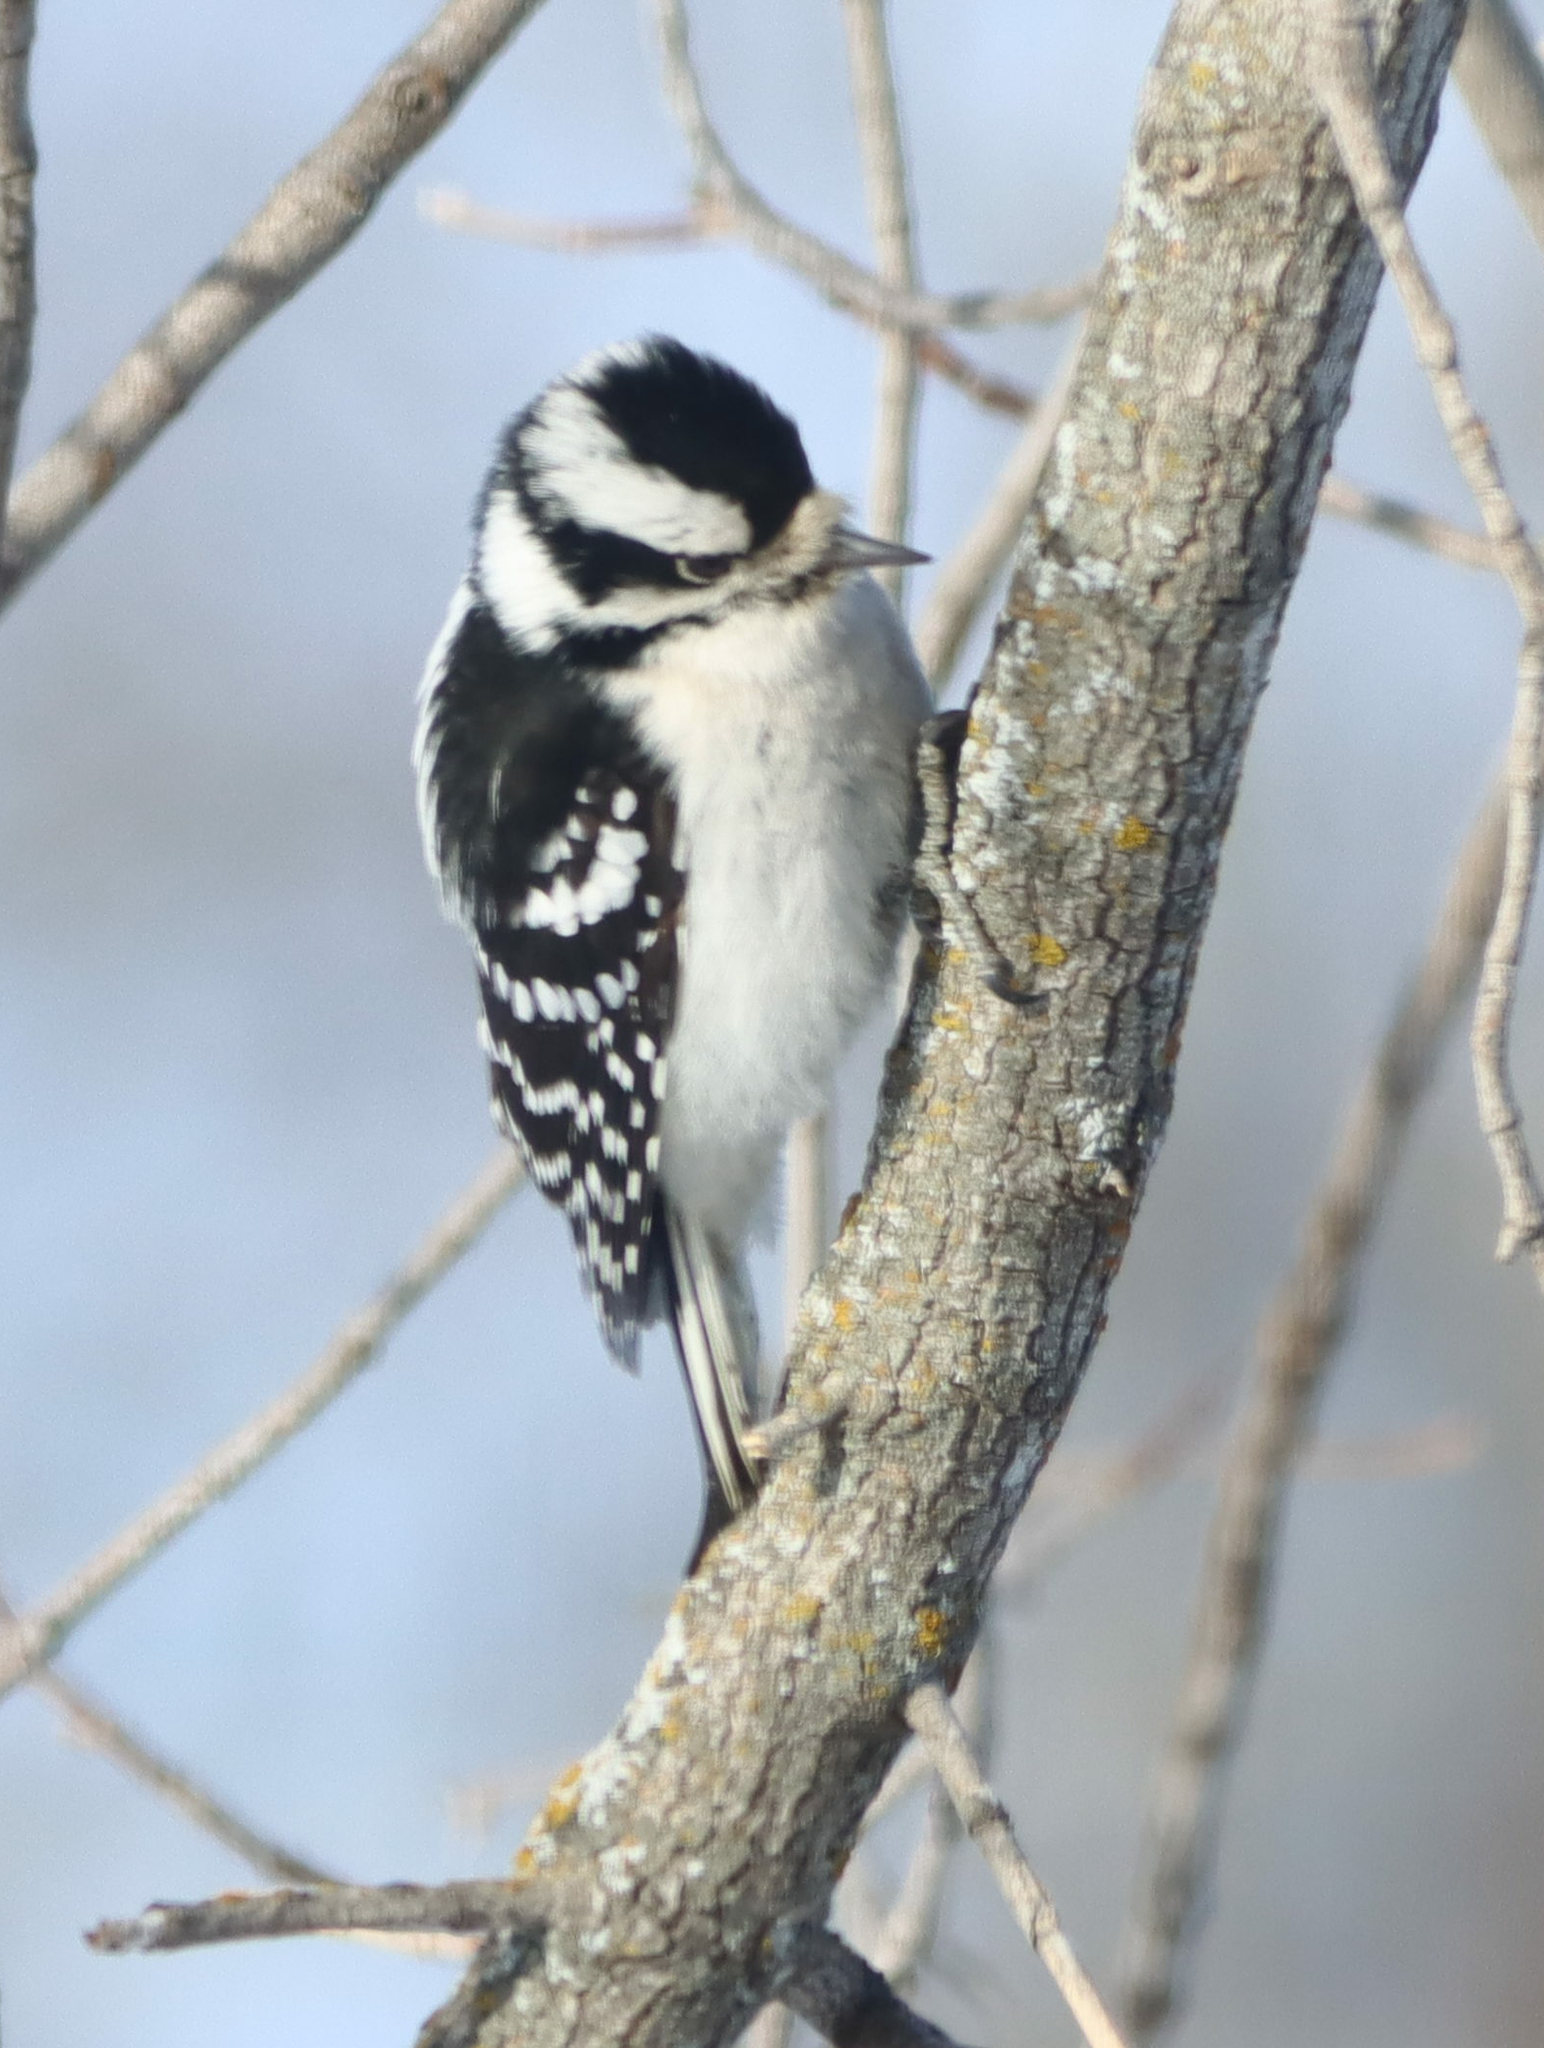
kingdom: Animalia
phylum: Chordata
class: Aves
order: Piciformes
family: Picidae
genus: Dryobates
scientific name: Dryobates pubescens
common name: Downy woodpecker
